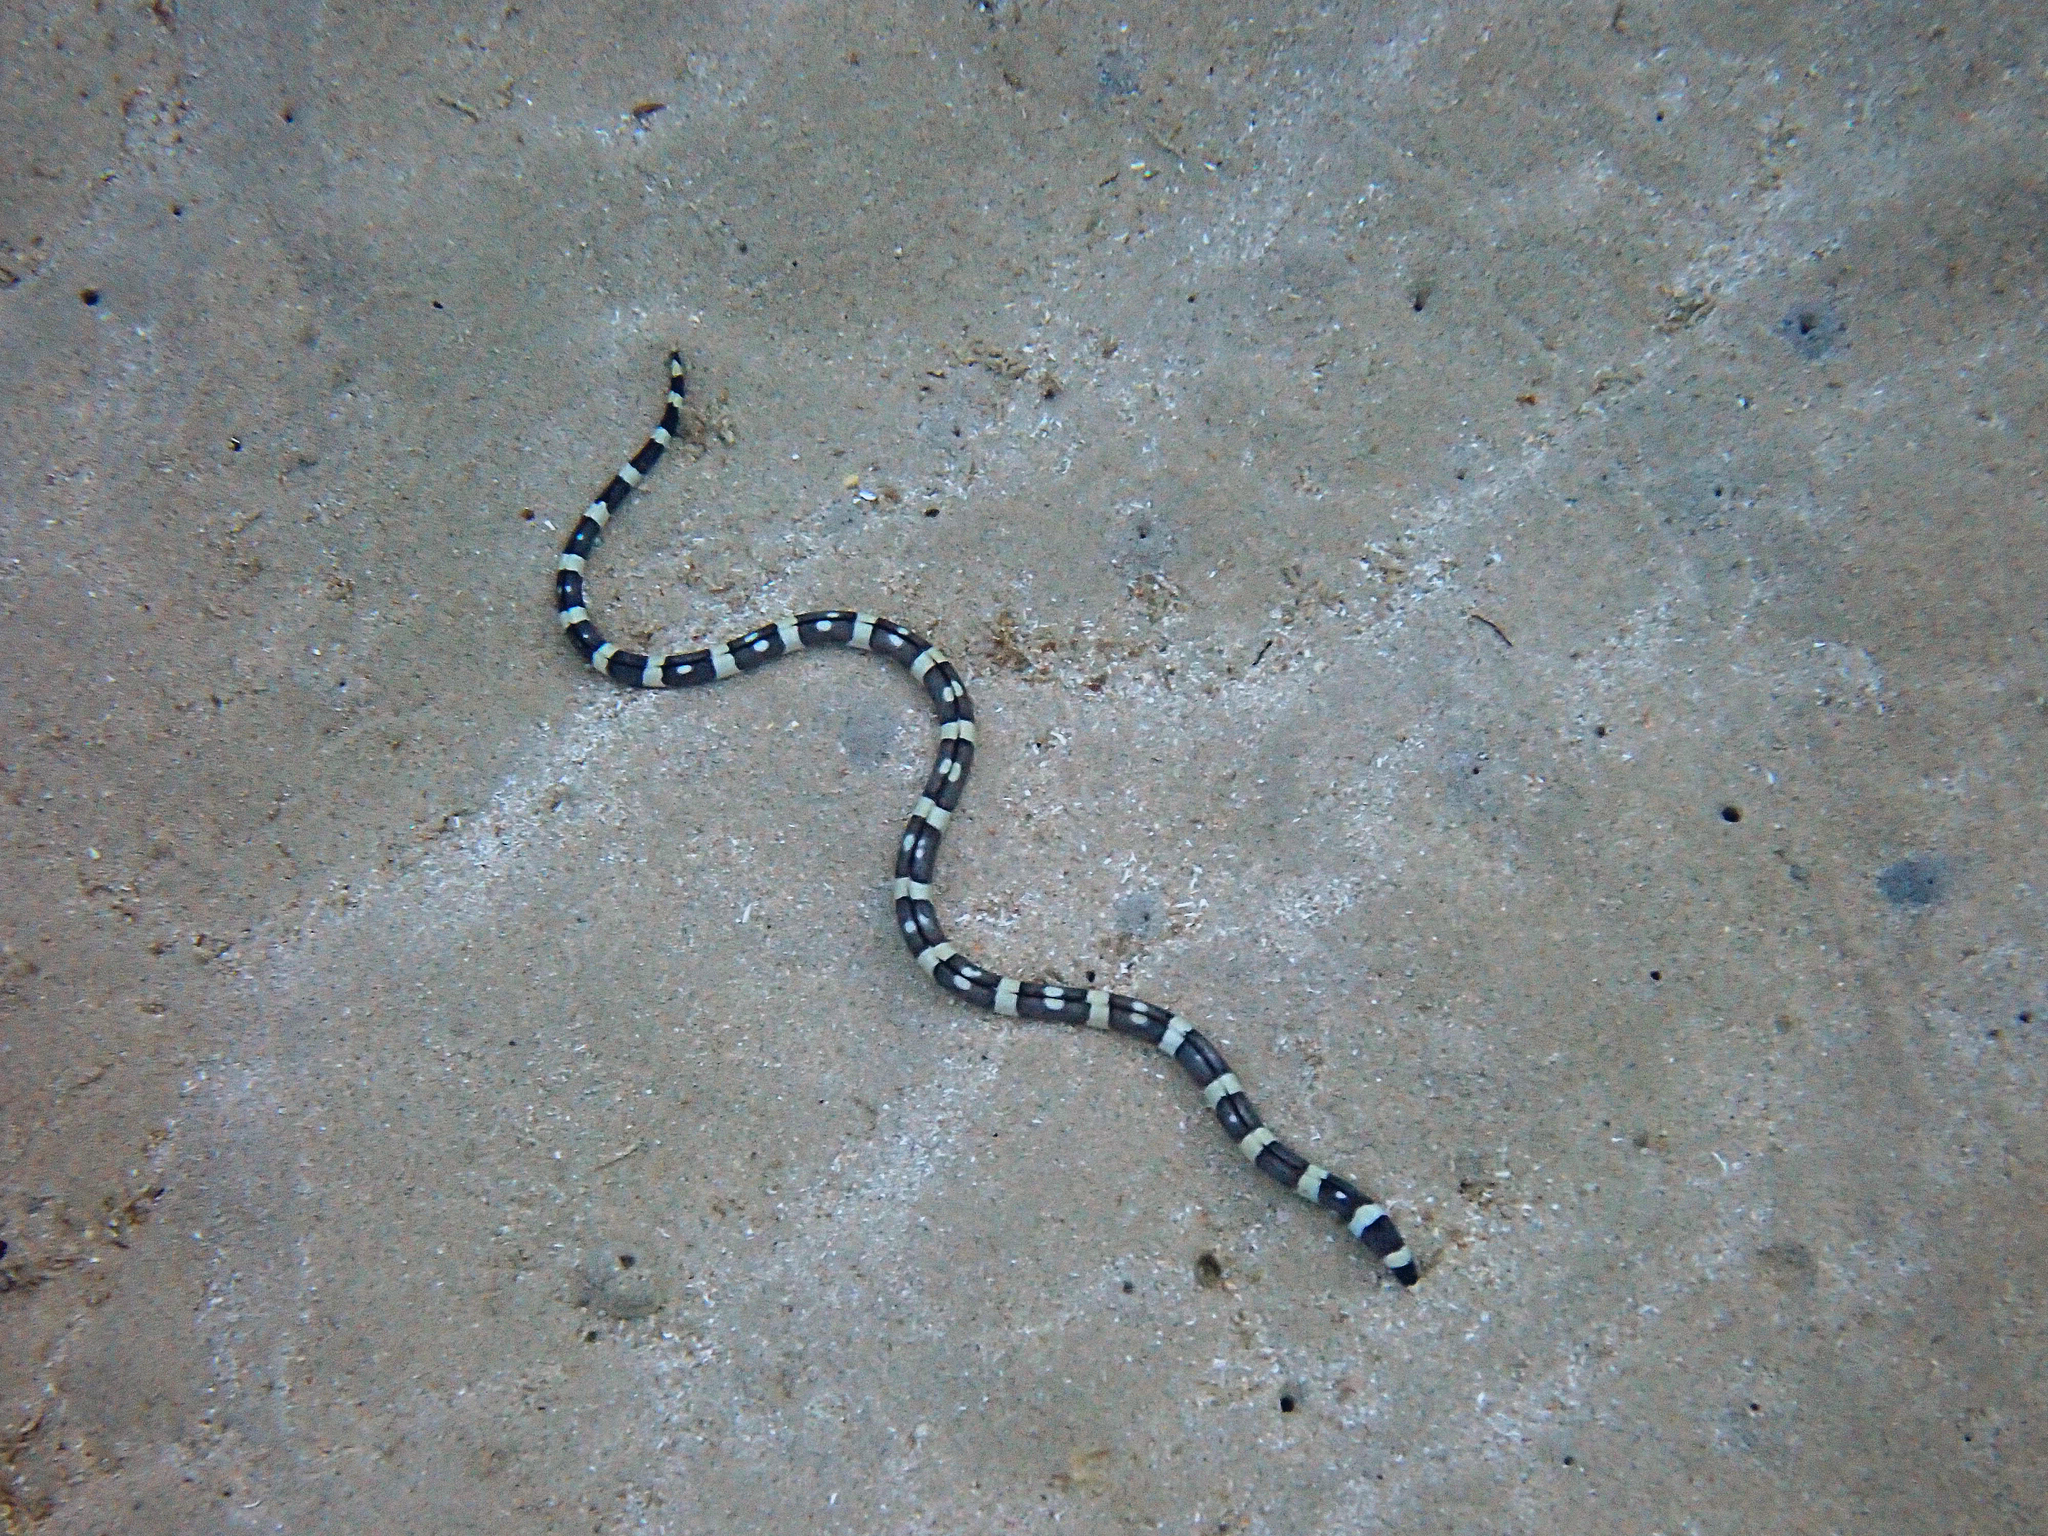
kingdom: Animalia
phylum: Chordata
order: Anguilliformes
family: Ophichthidae
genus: Leiuranus
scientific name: Leiuranus versicolor
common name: Convict snake eel
